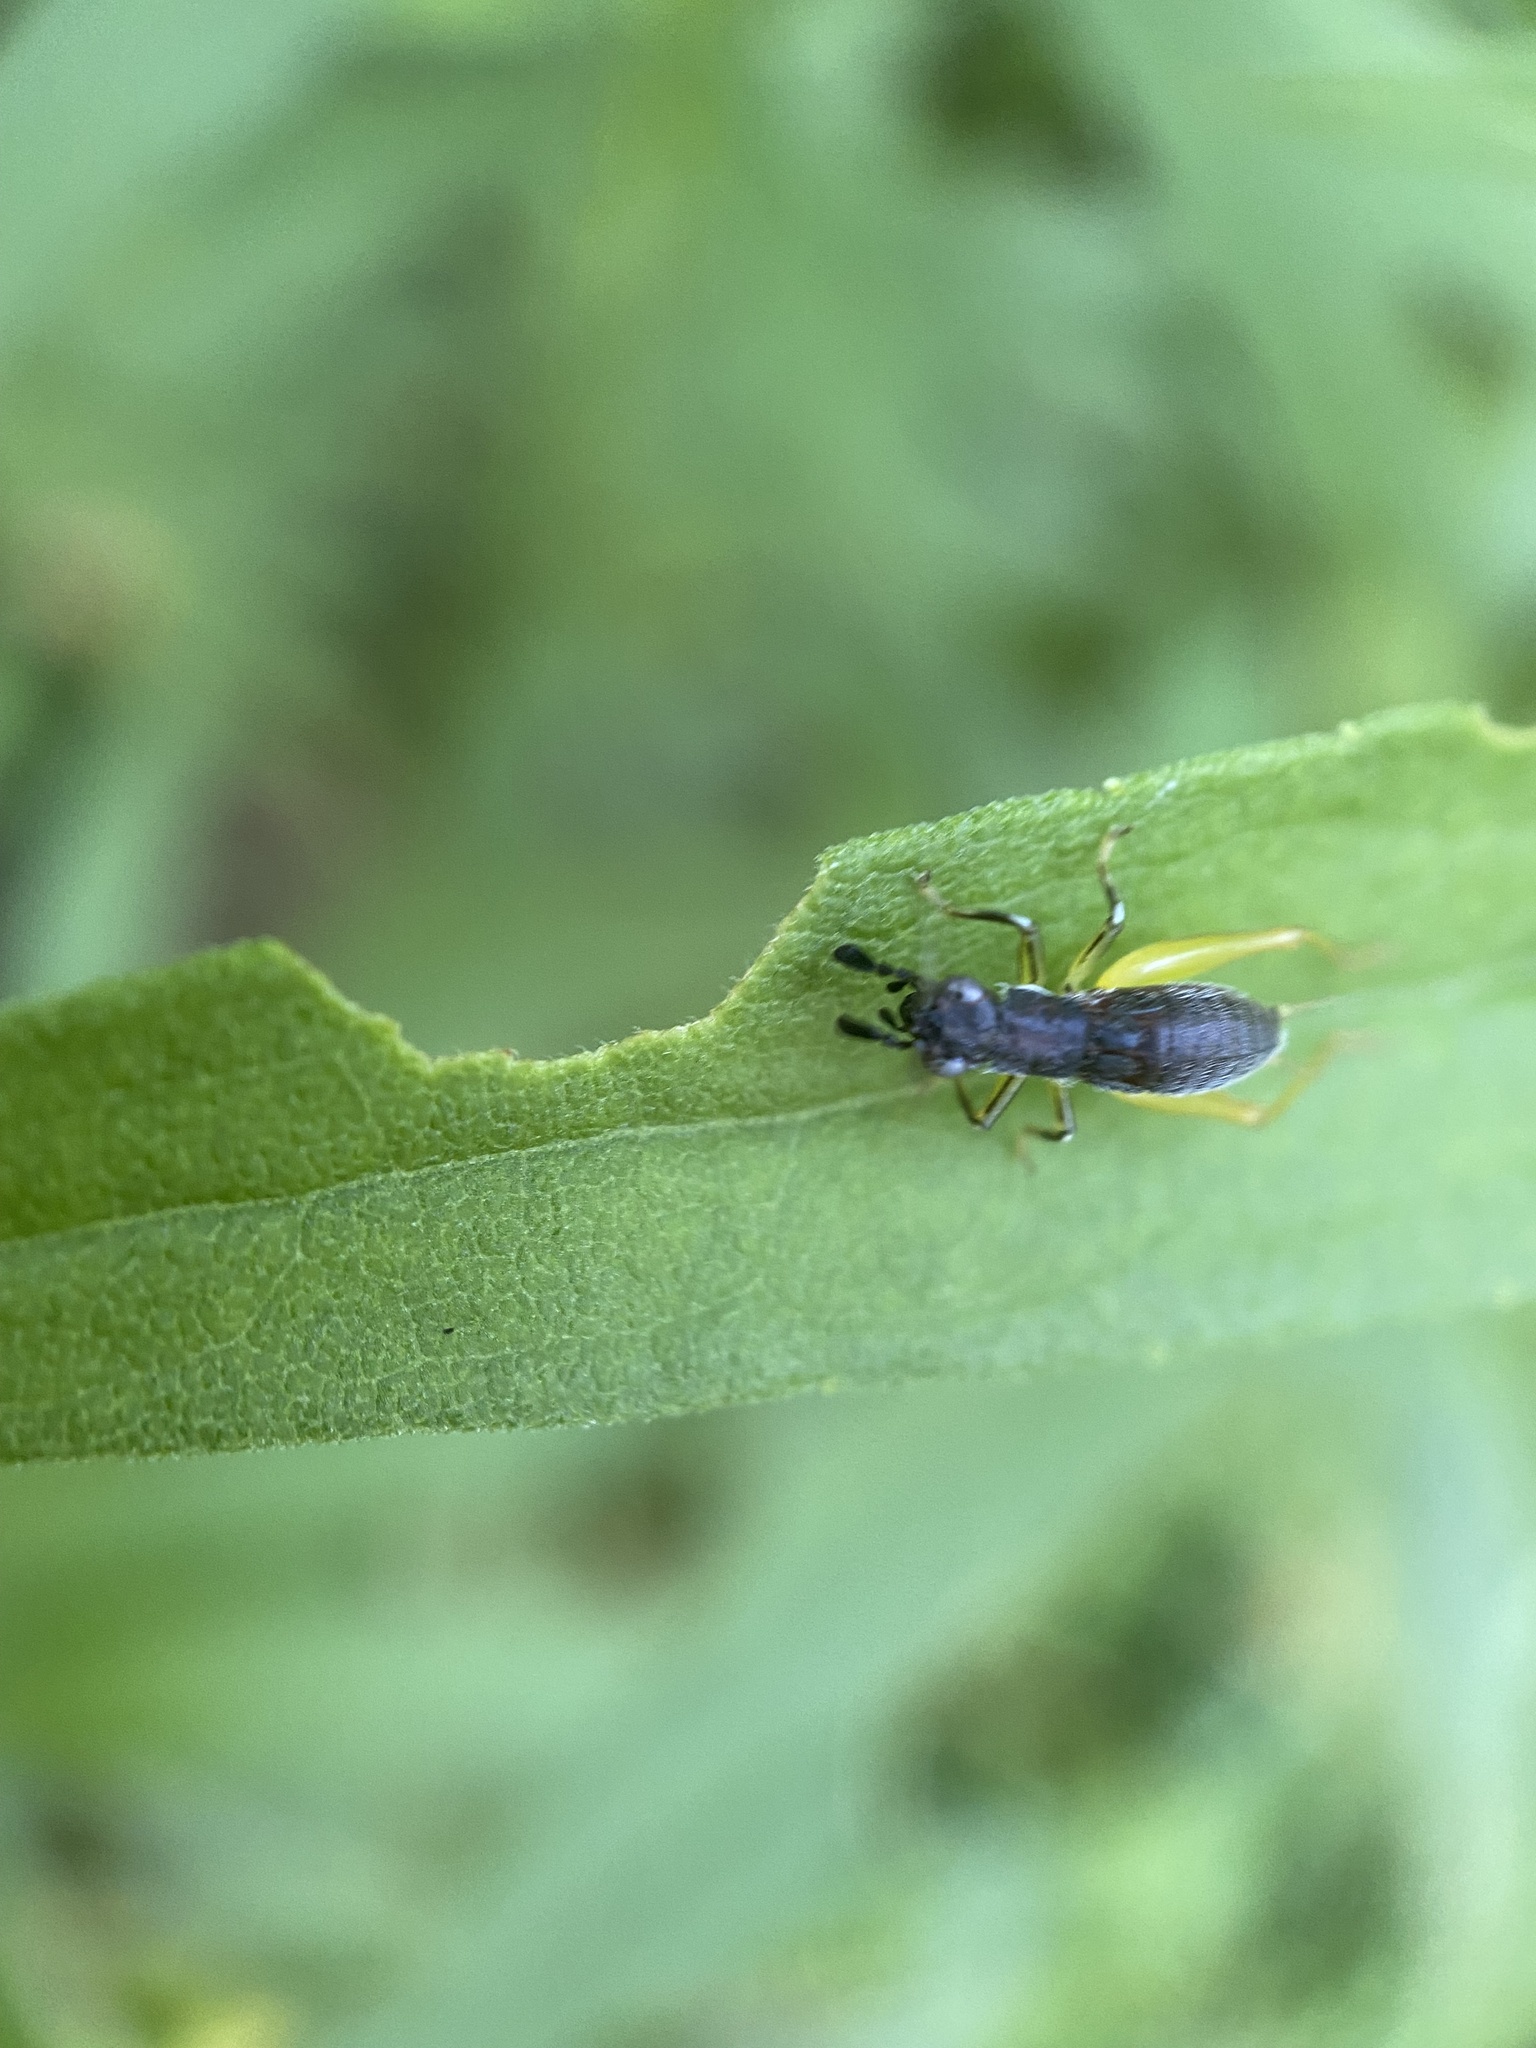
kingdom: Animalia
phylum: Arthropoda
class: Insecta
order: Orthoptera
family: Trigonidiidae
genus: Phyllopalpus
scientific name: Phyllopalpus pulchellus
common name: Handsome trig
